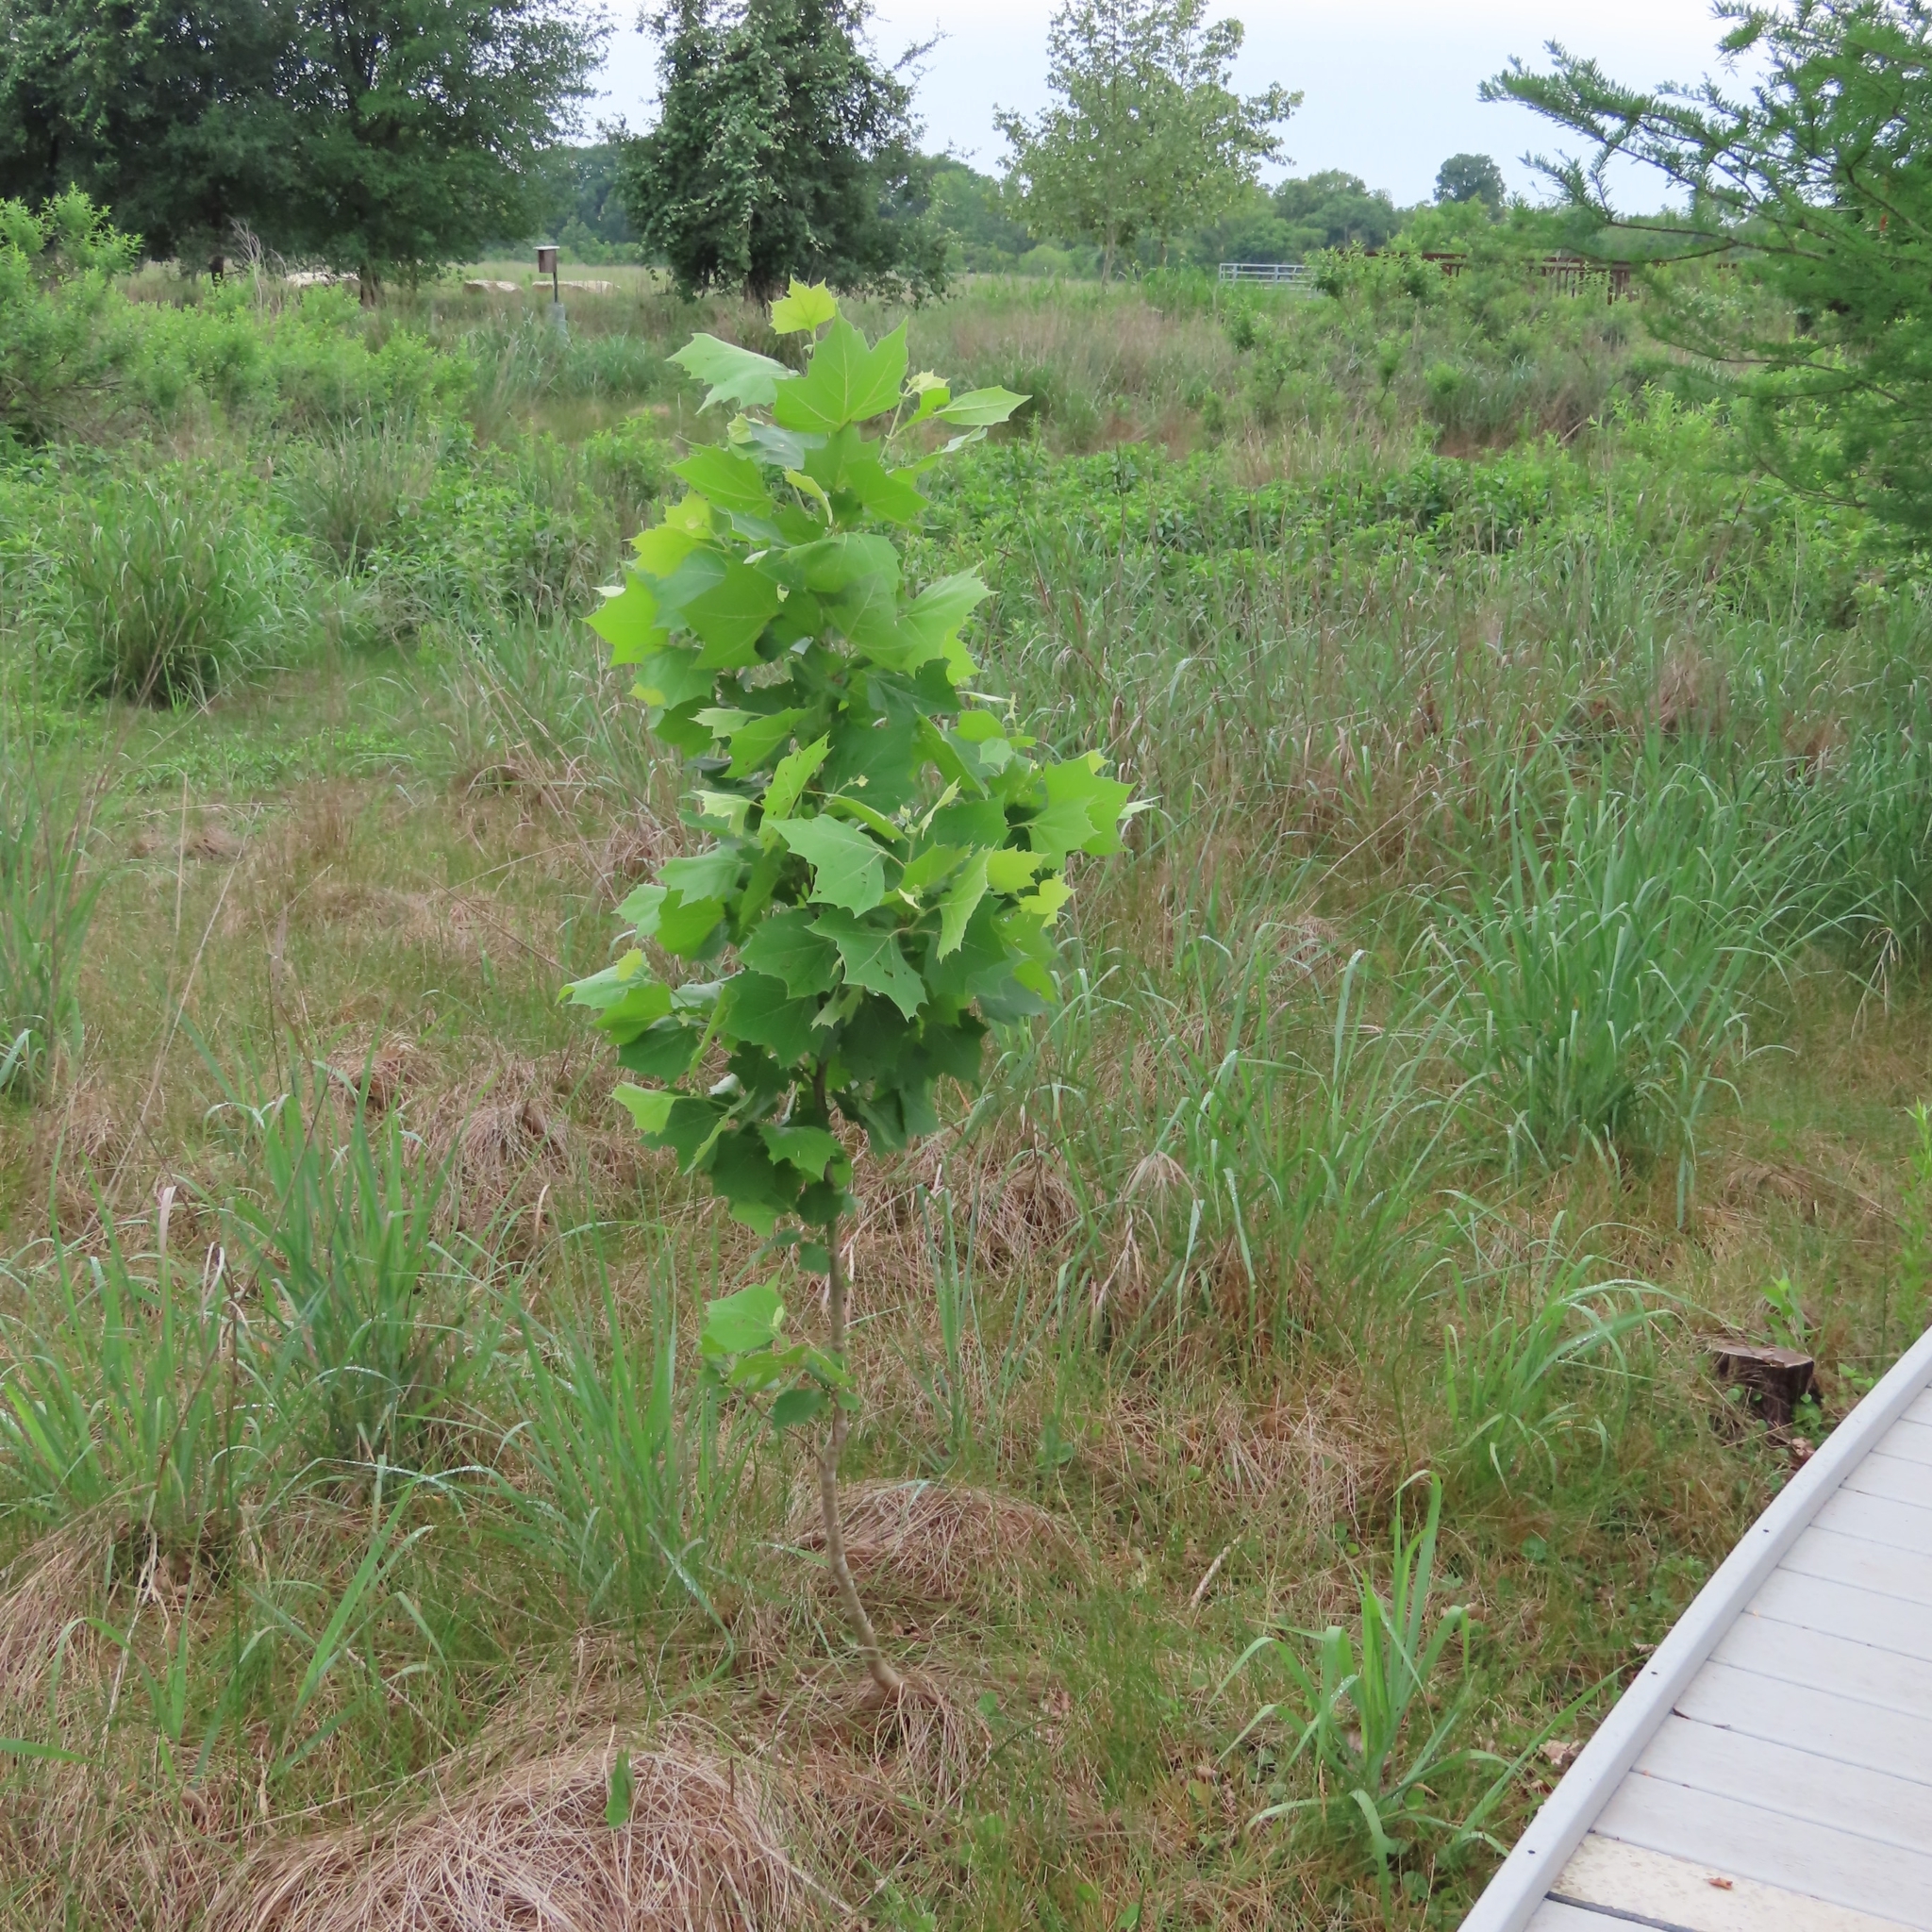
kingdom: Plantae
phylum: Tracheophyta
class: Magnoliopsida
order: Proteales
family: Platanaceae
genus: Platanus
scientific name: Platanus occidentalis
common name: American sycamore
